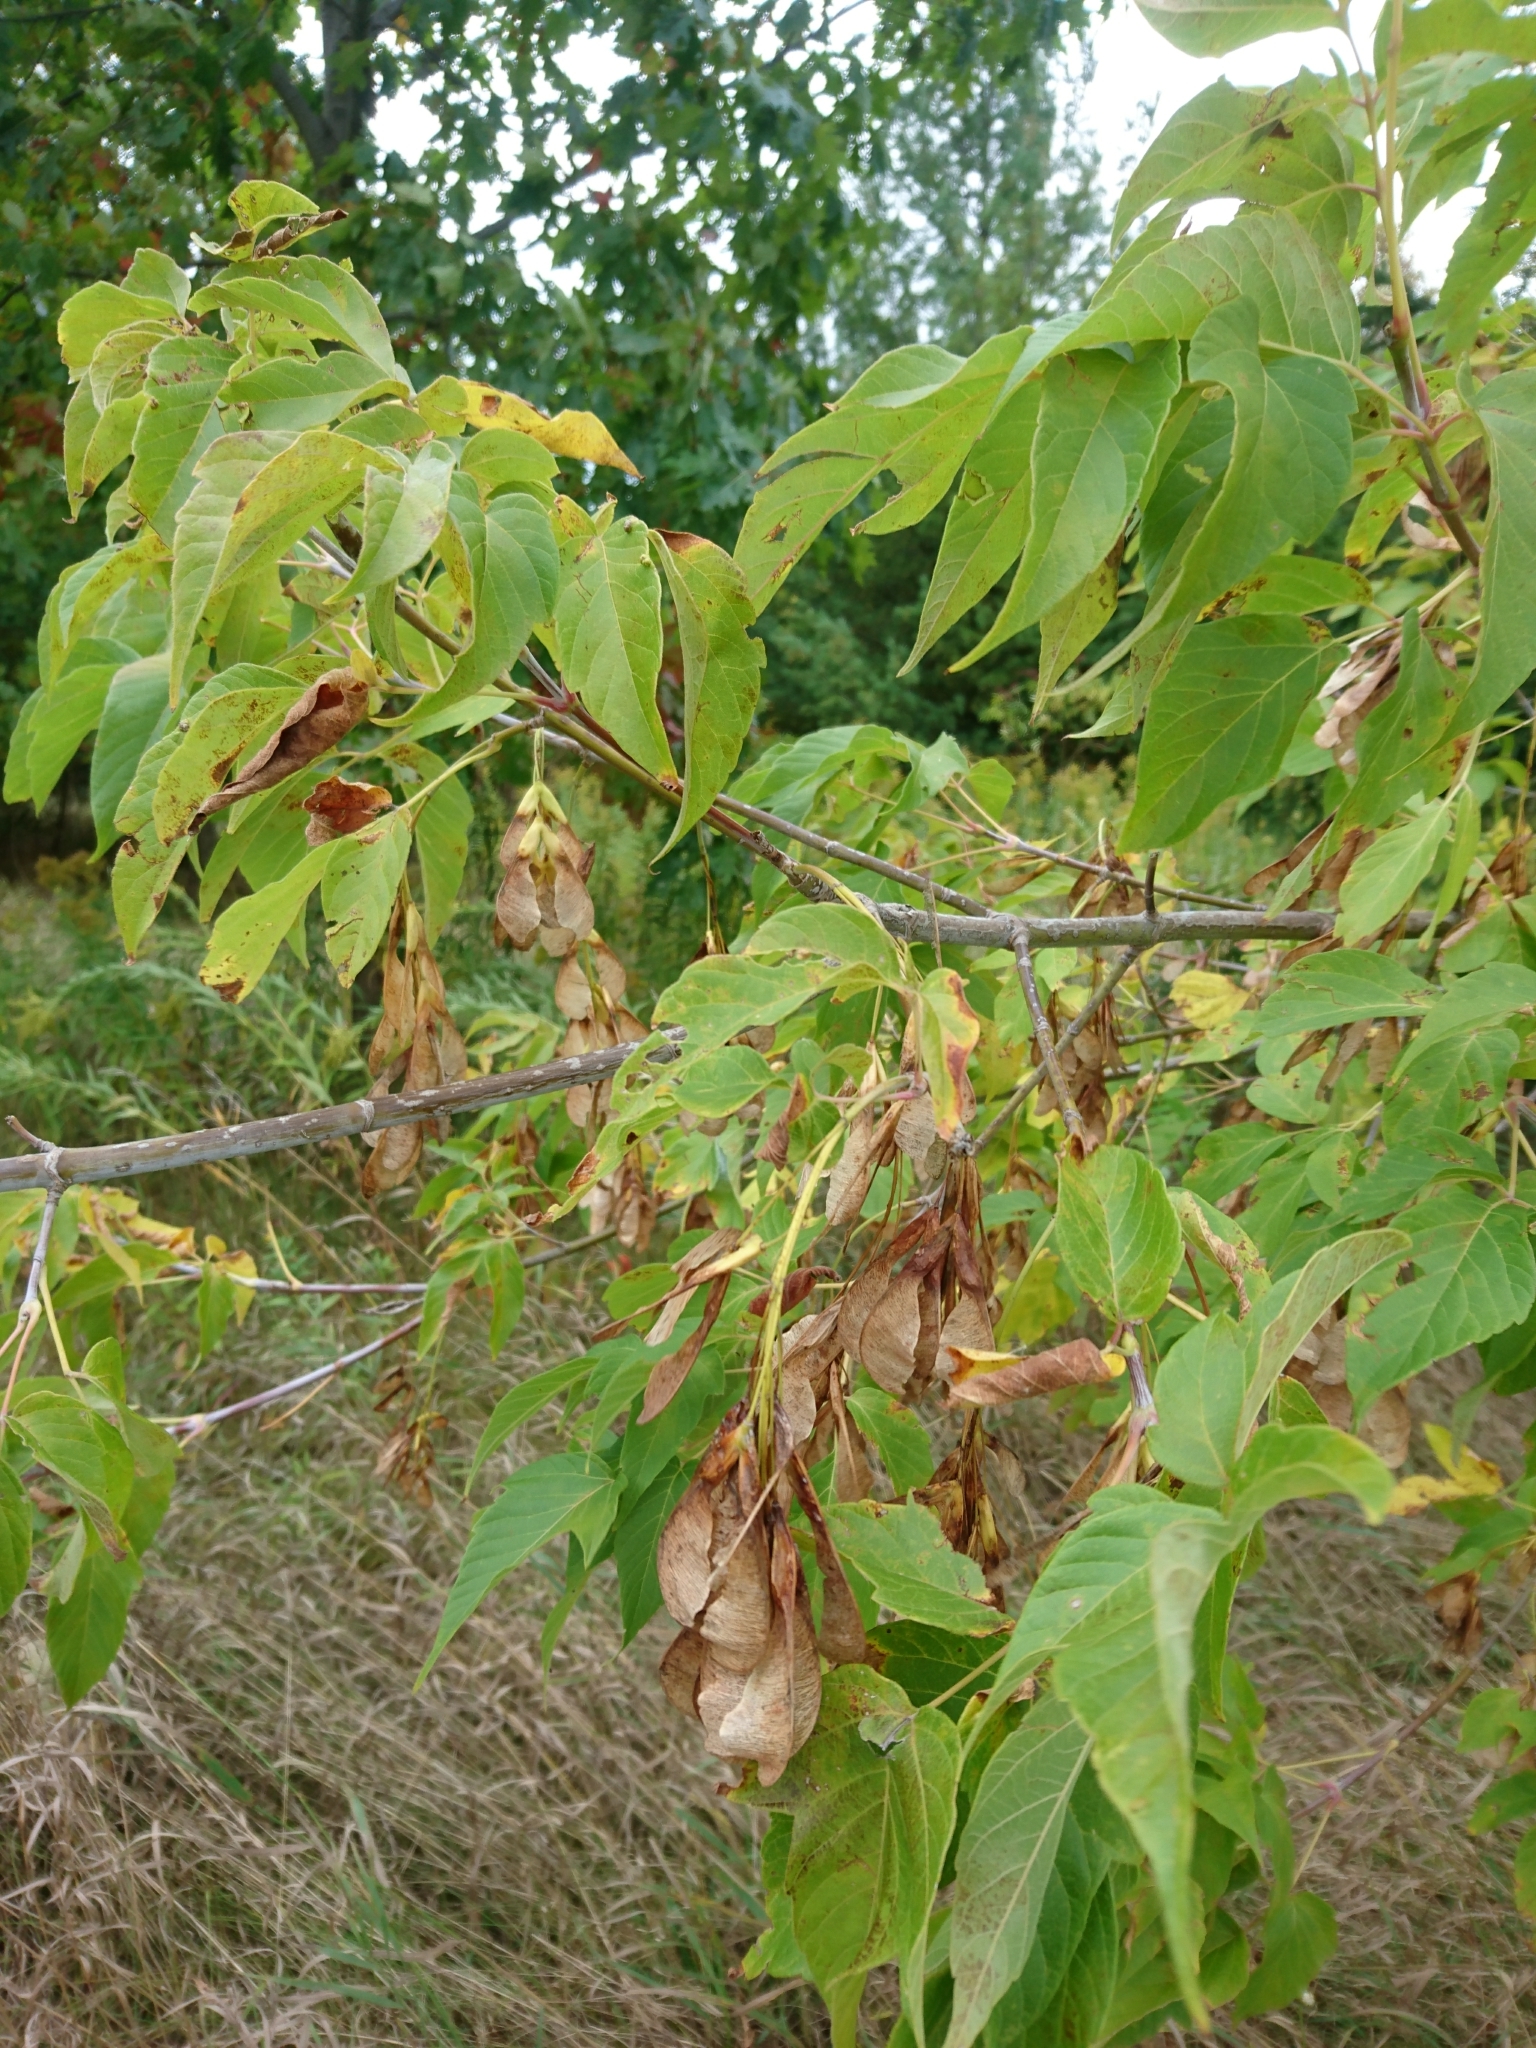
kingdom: Plantae
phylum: Tracheophyta
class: Magnoliopsida
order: Sapindales
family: Sapindaceae
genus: Acer
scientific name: Acer negundo
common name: Ashleaf maple
